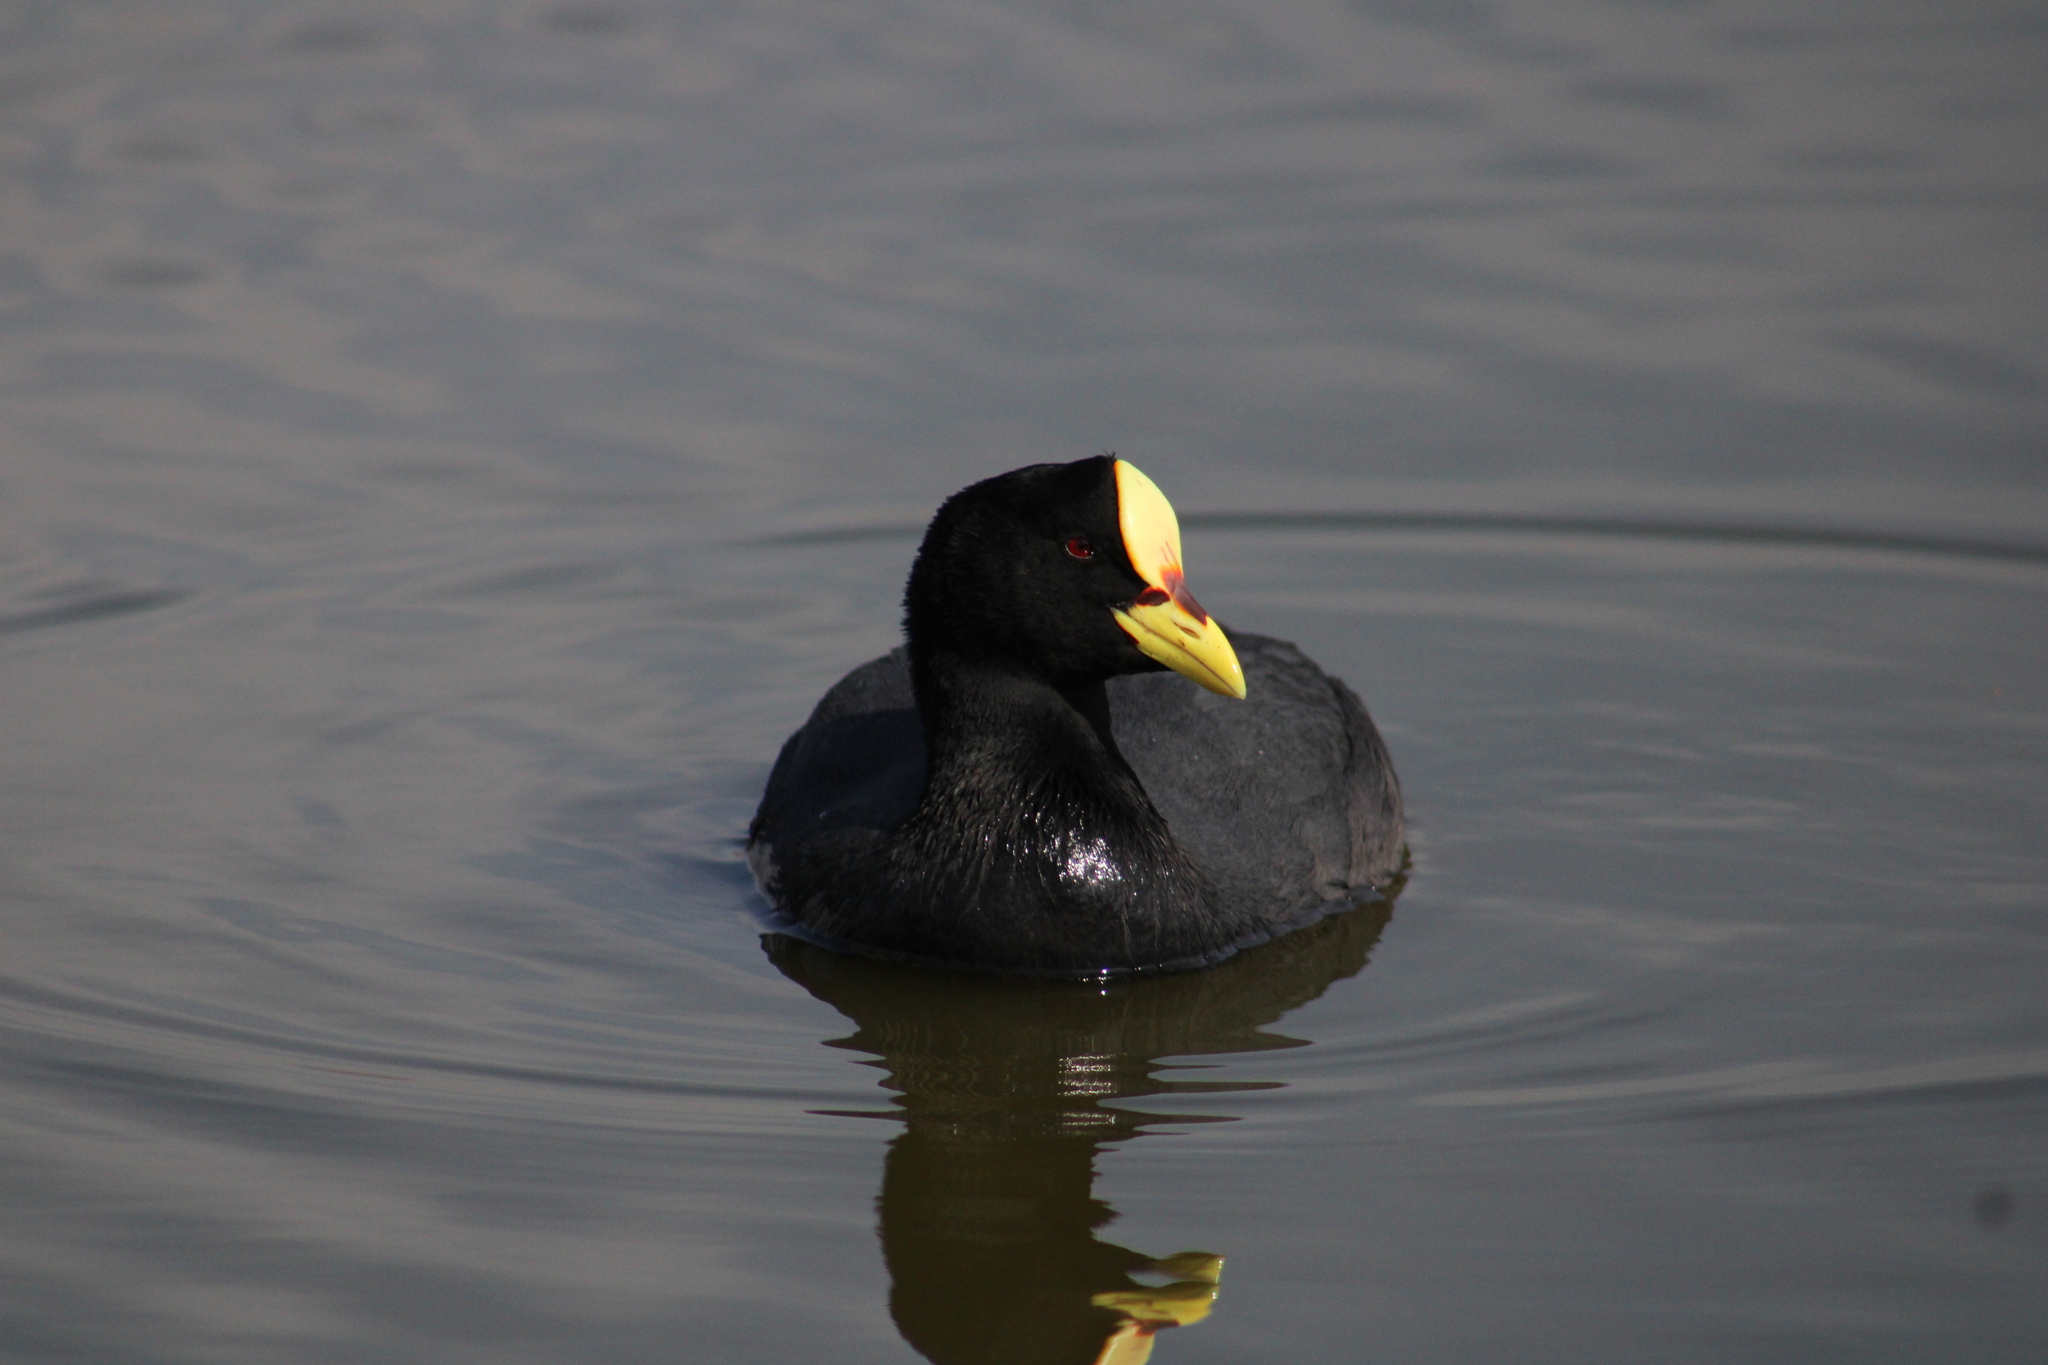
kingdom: Animalia
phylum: Chordata
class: Aves
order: Gruiformes
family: Rallidae
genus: Fulica
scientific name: Fulica armillata
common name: Red-gartered coot
